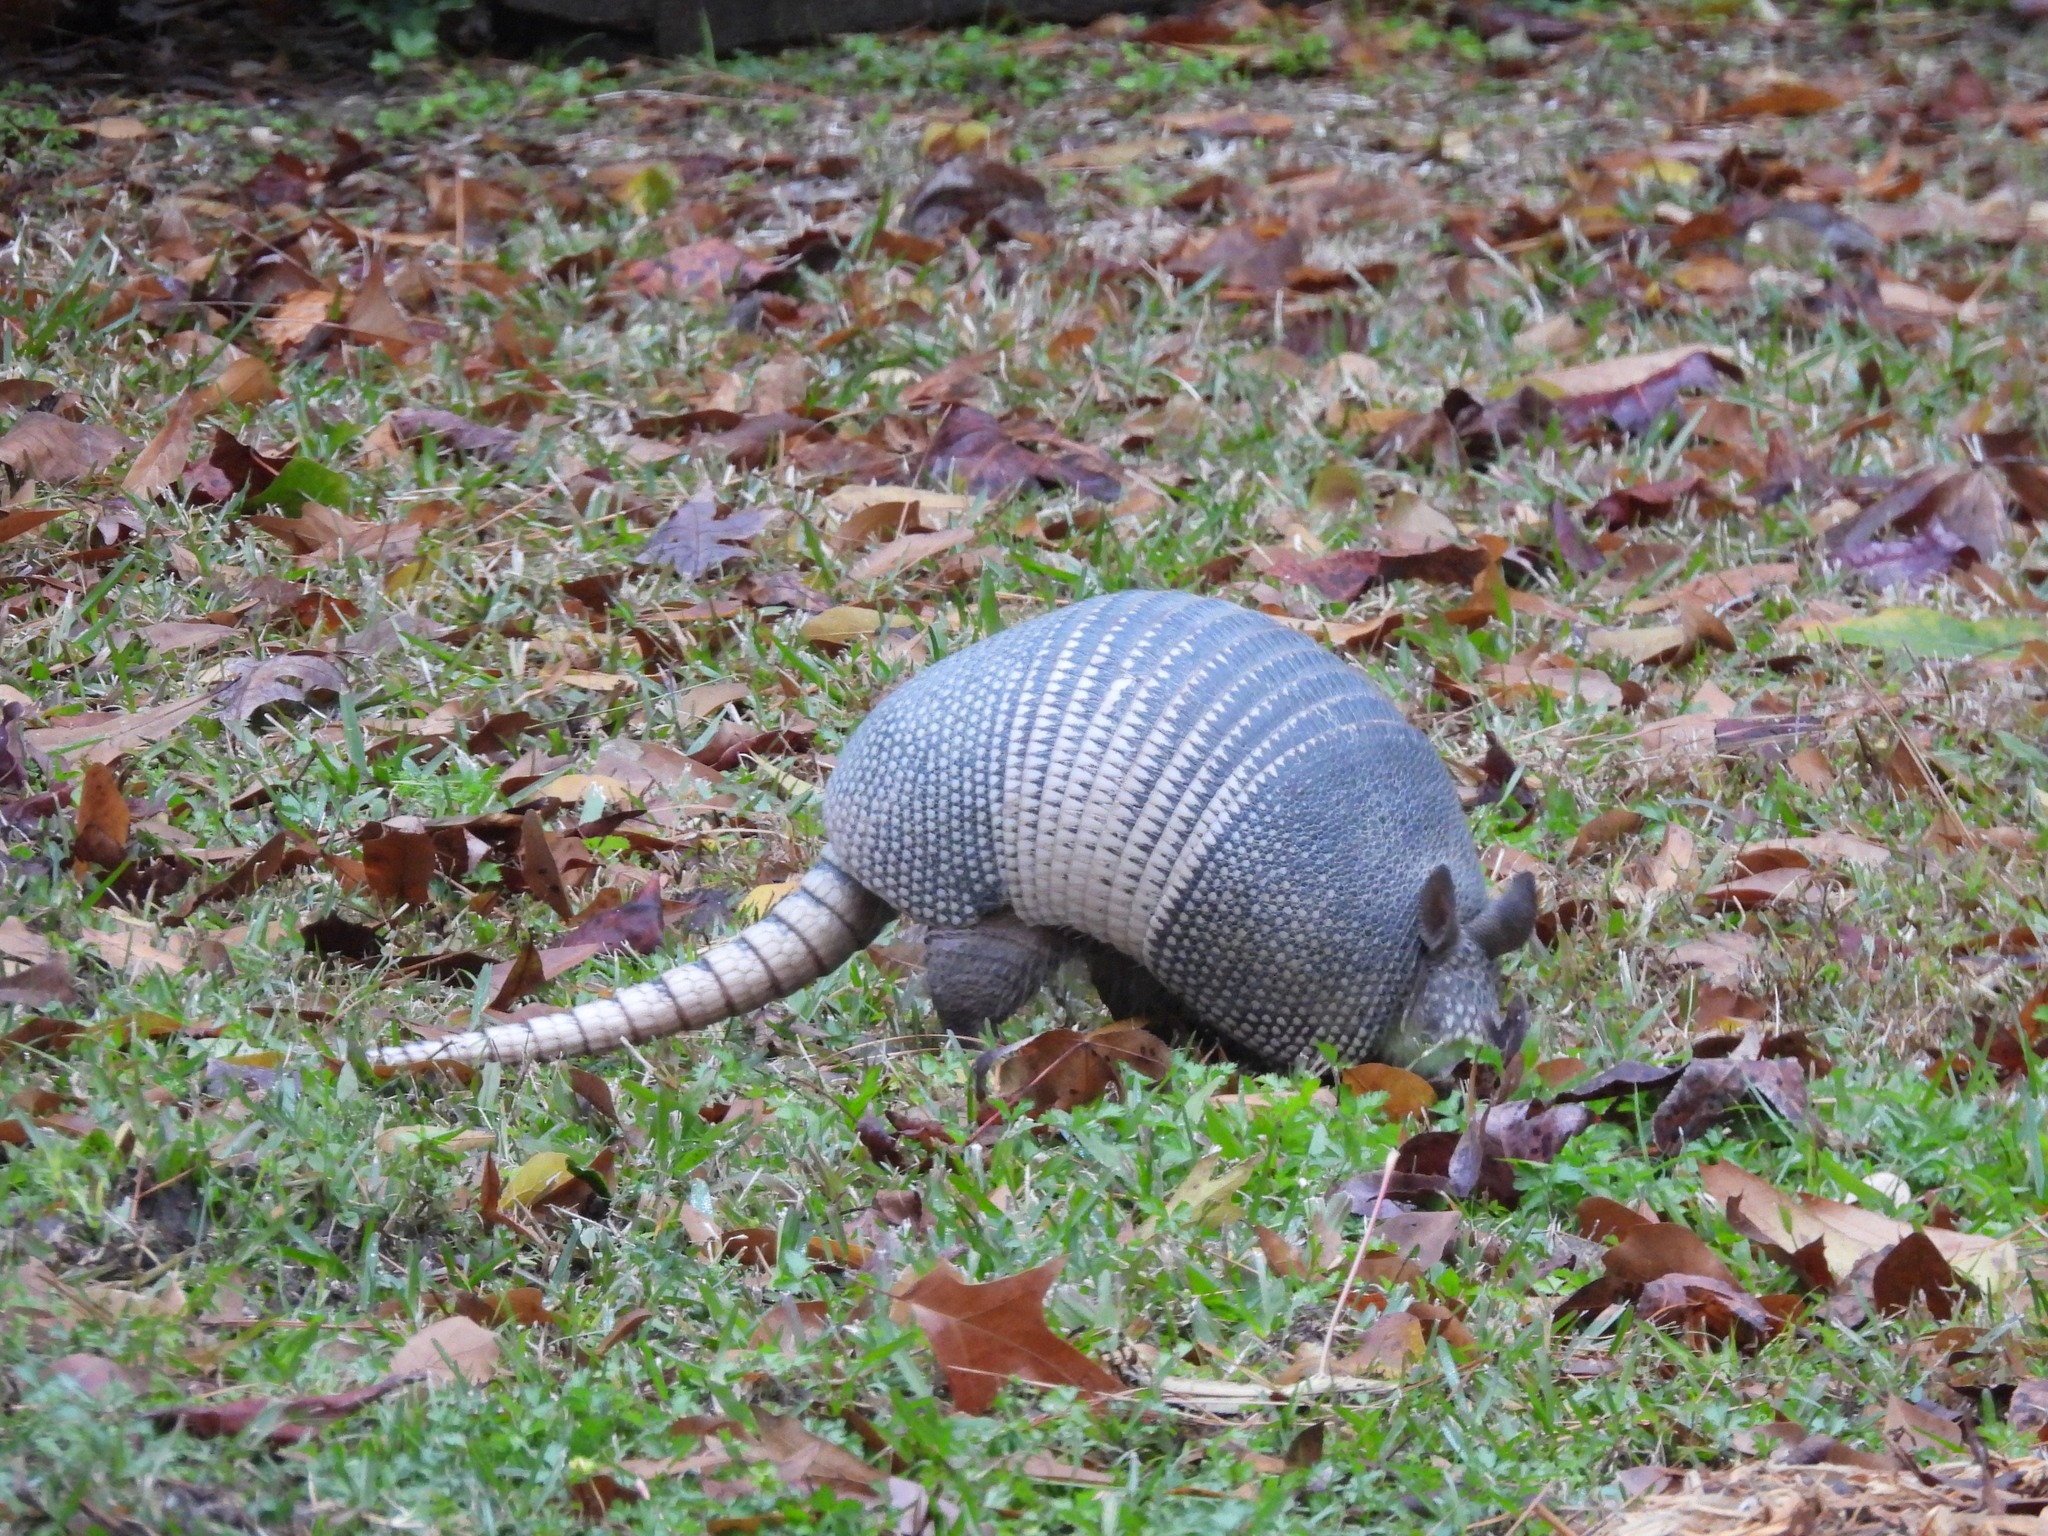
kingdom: Animalia
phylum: Chordata
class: Mammalia
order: Cingulata
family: Dasypodidae
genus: Dasypus
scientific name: Dasypus novemcinctus
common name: Nine-banded armadillo
